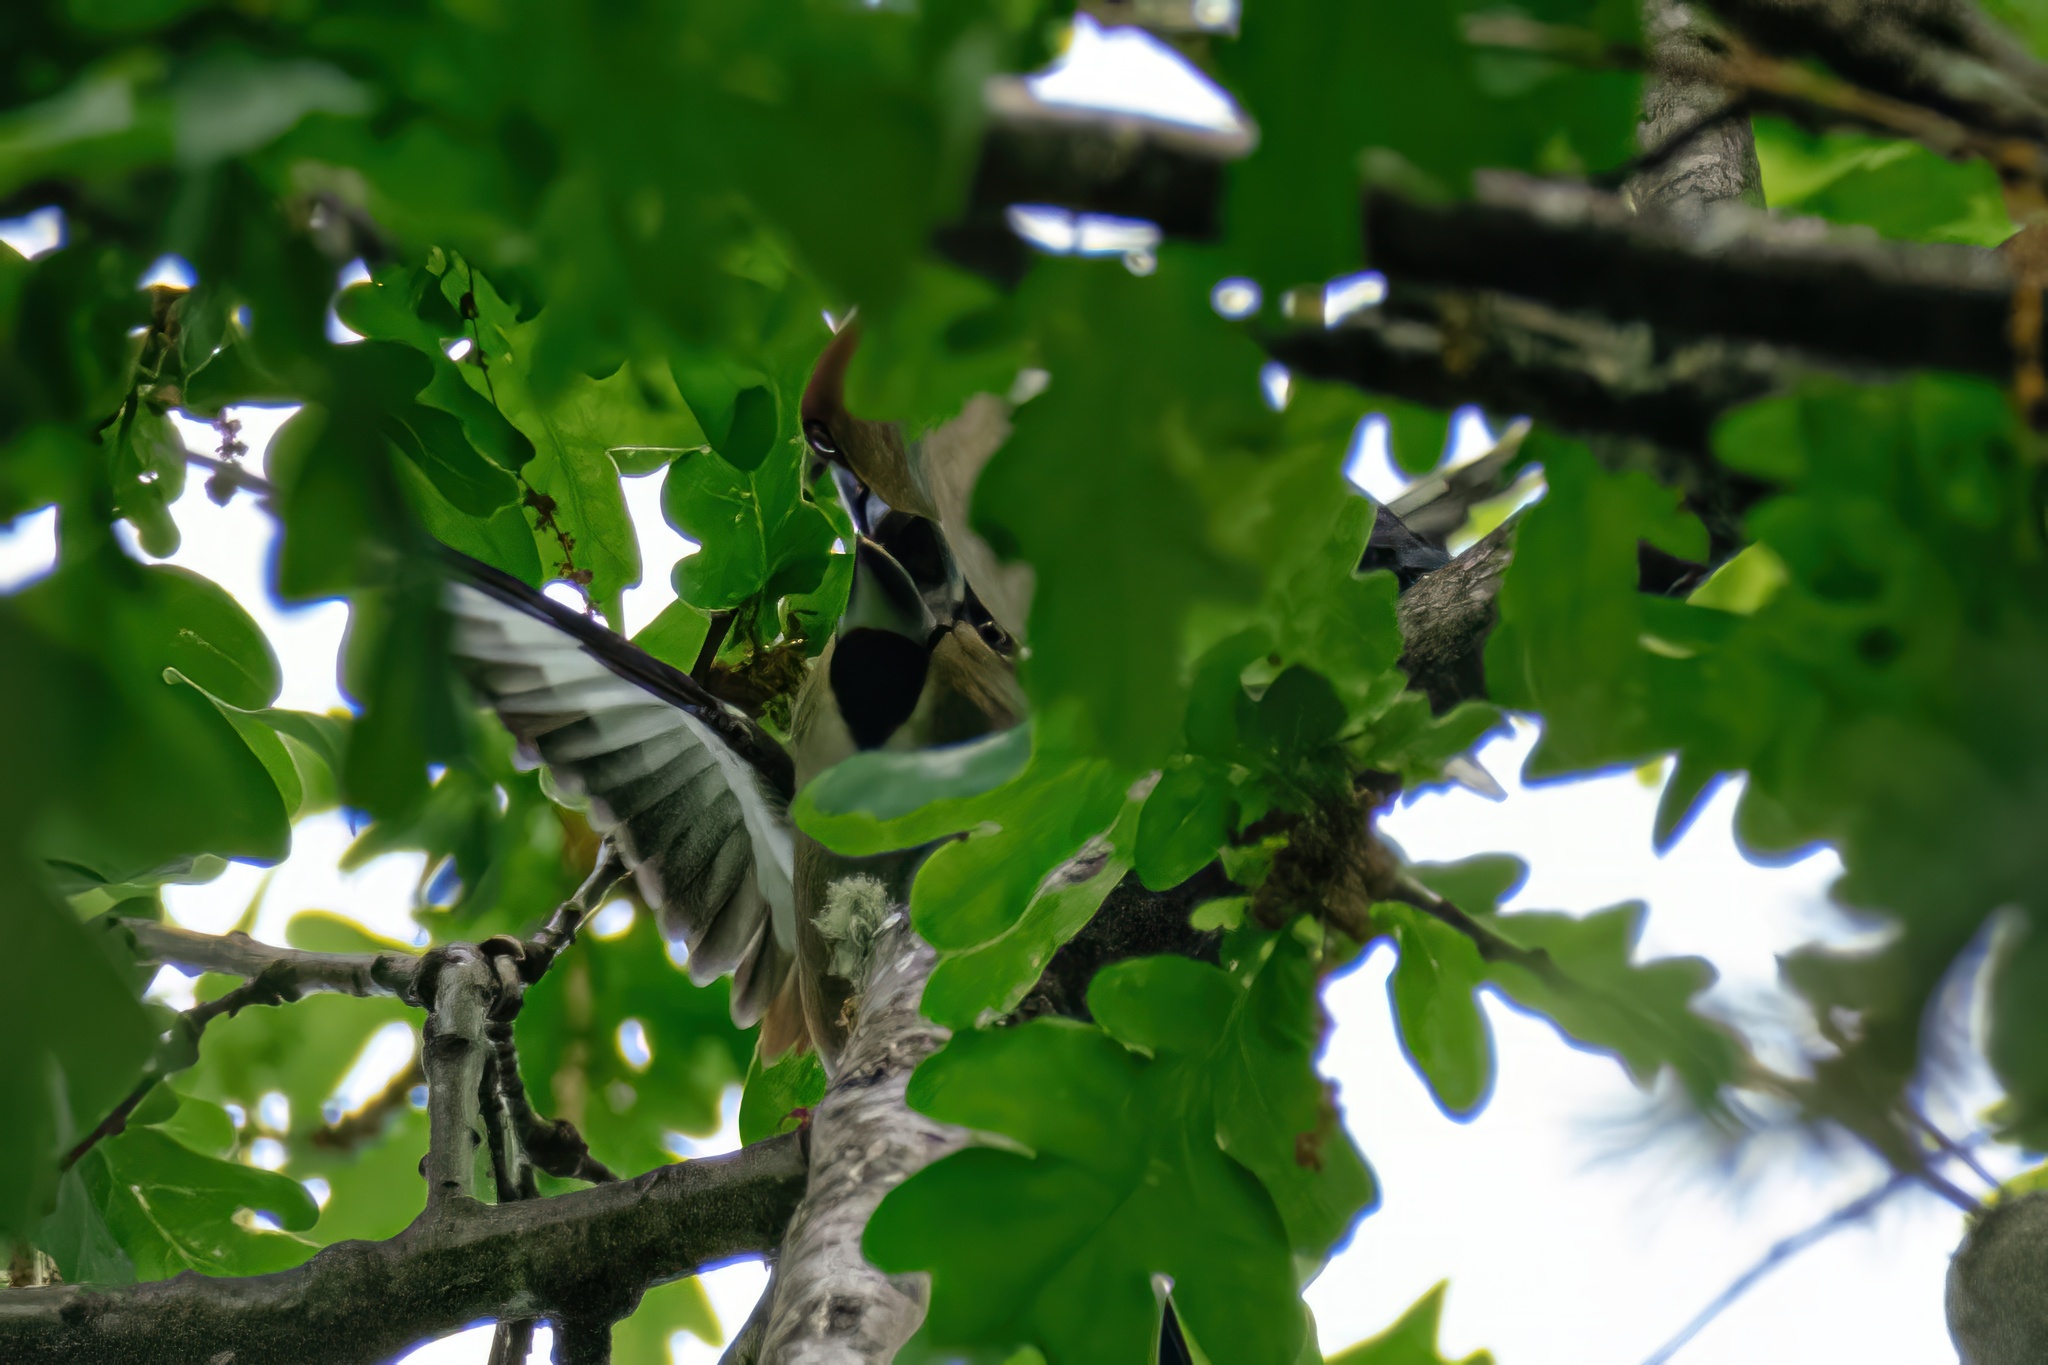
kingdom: Animalia
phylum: Chordata
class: Aves
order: Passeriformes
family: Fringillidae
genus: Coccothraustes
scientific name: Coccothraustes coccothraustes
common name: Hawfinch
